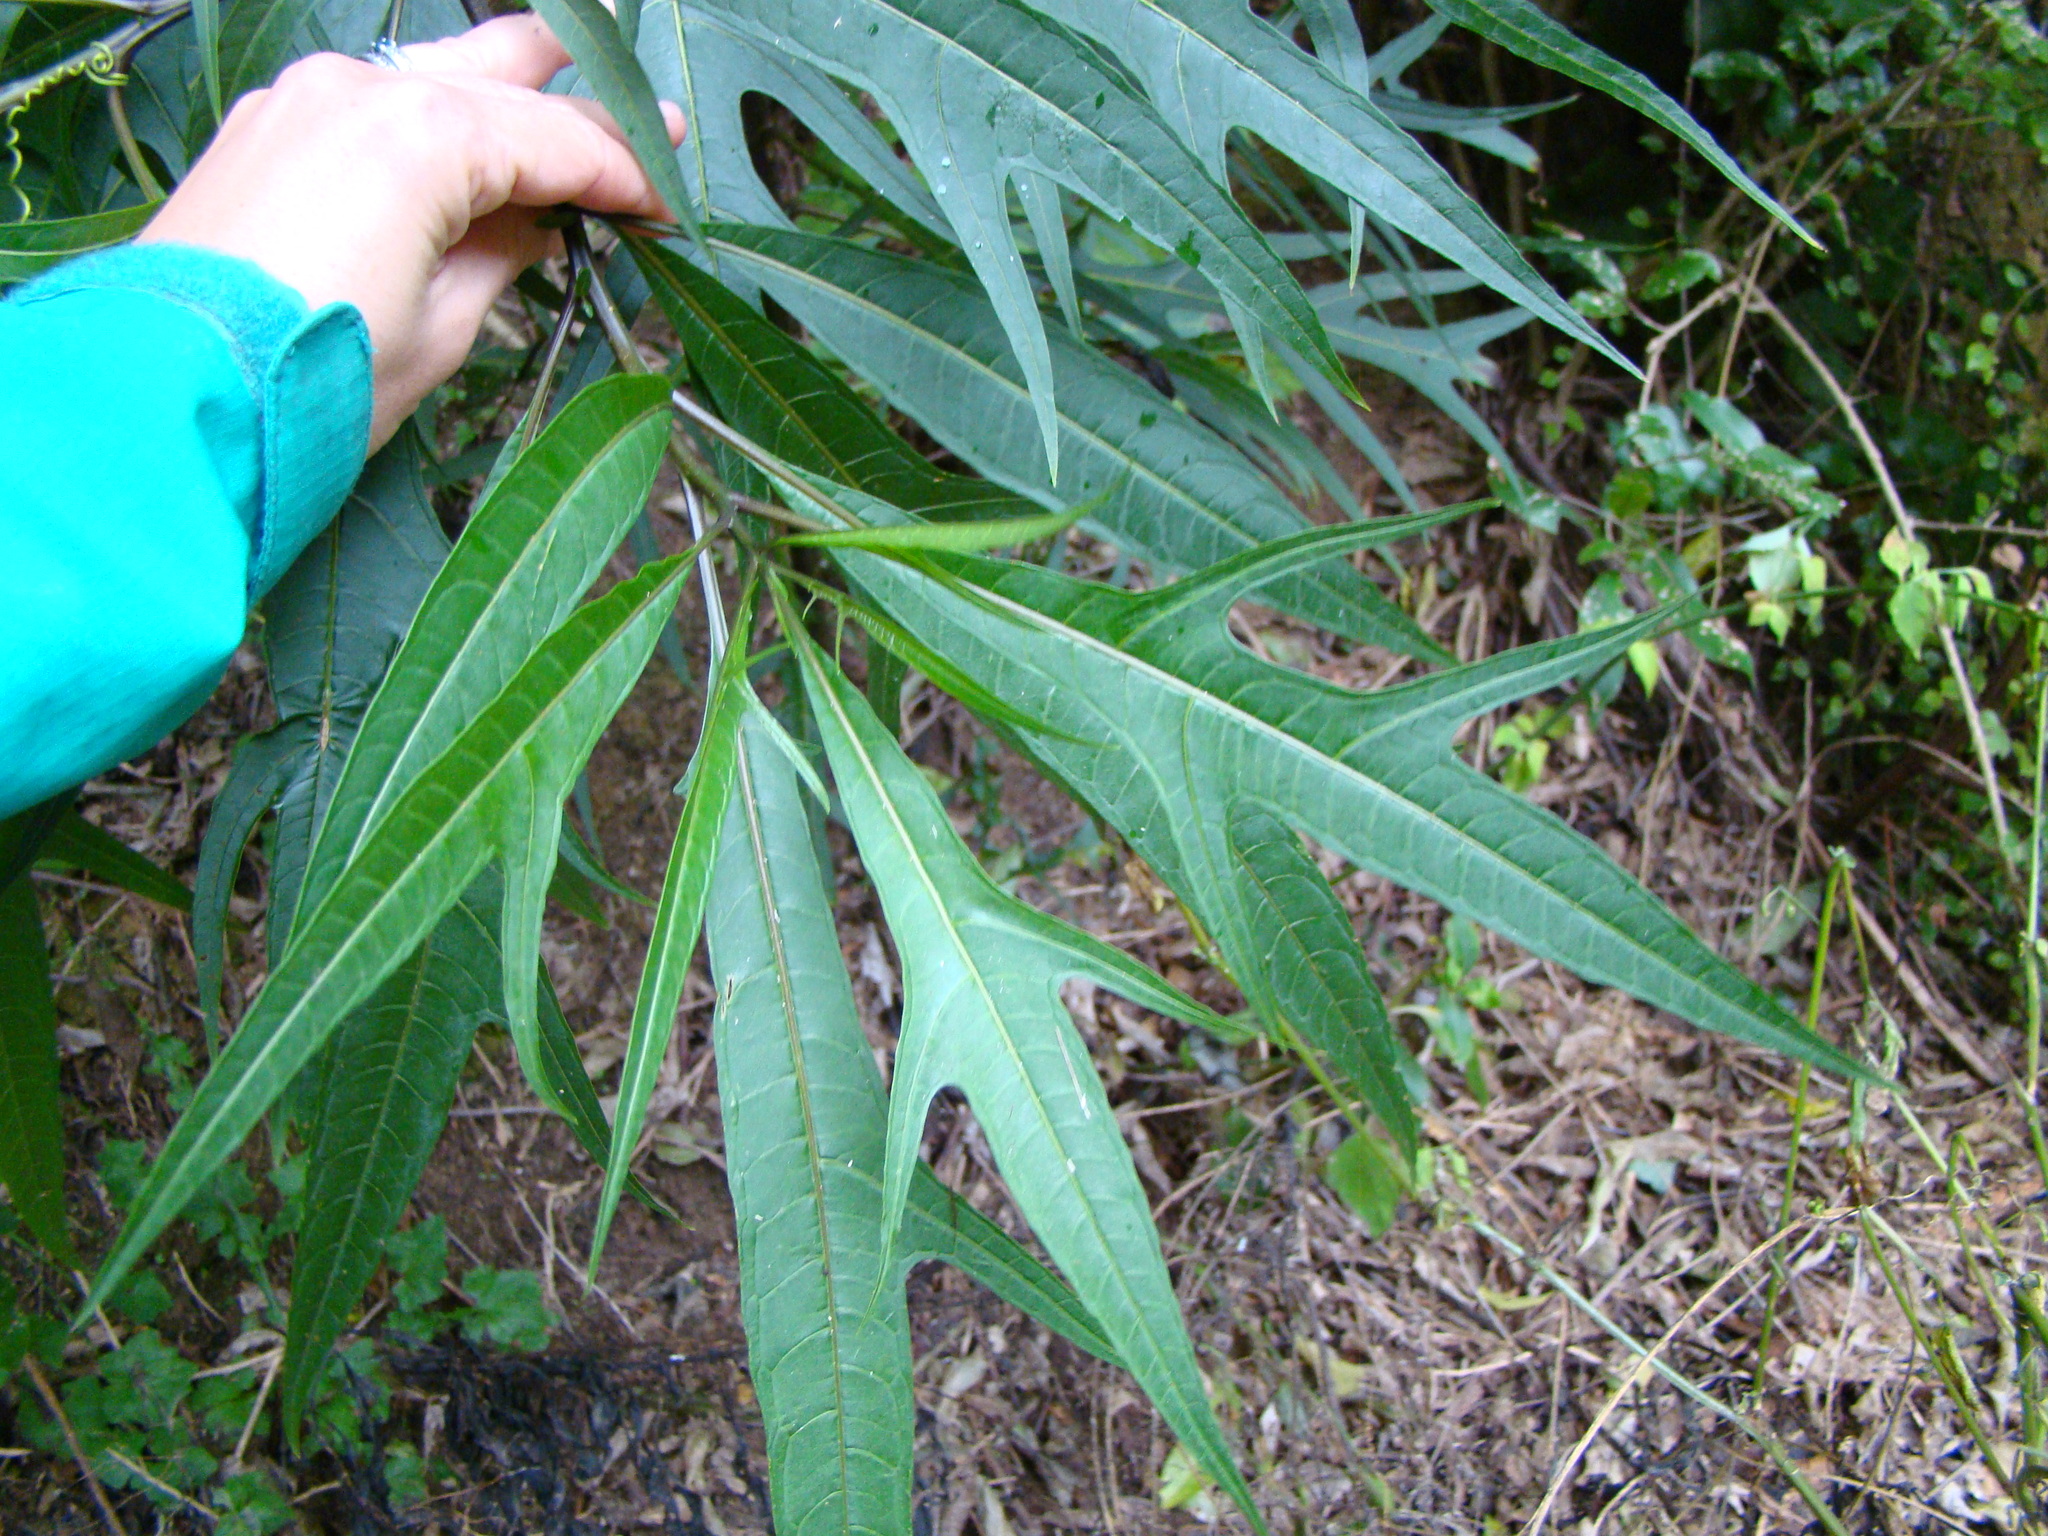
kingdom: Plantae
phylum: Tracheophyta
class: Magnoliopsida
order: Solanales
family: Solanaceae
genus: Solanum
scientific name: Solanum
